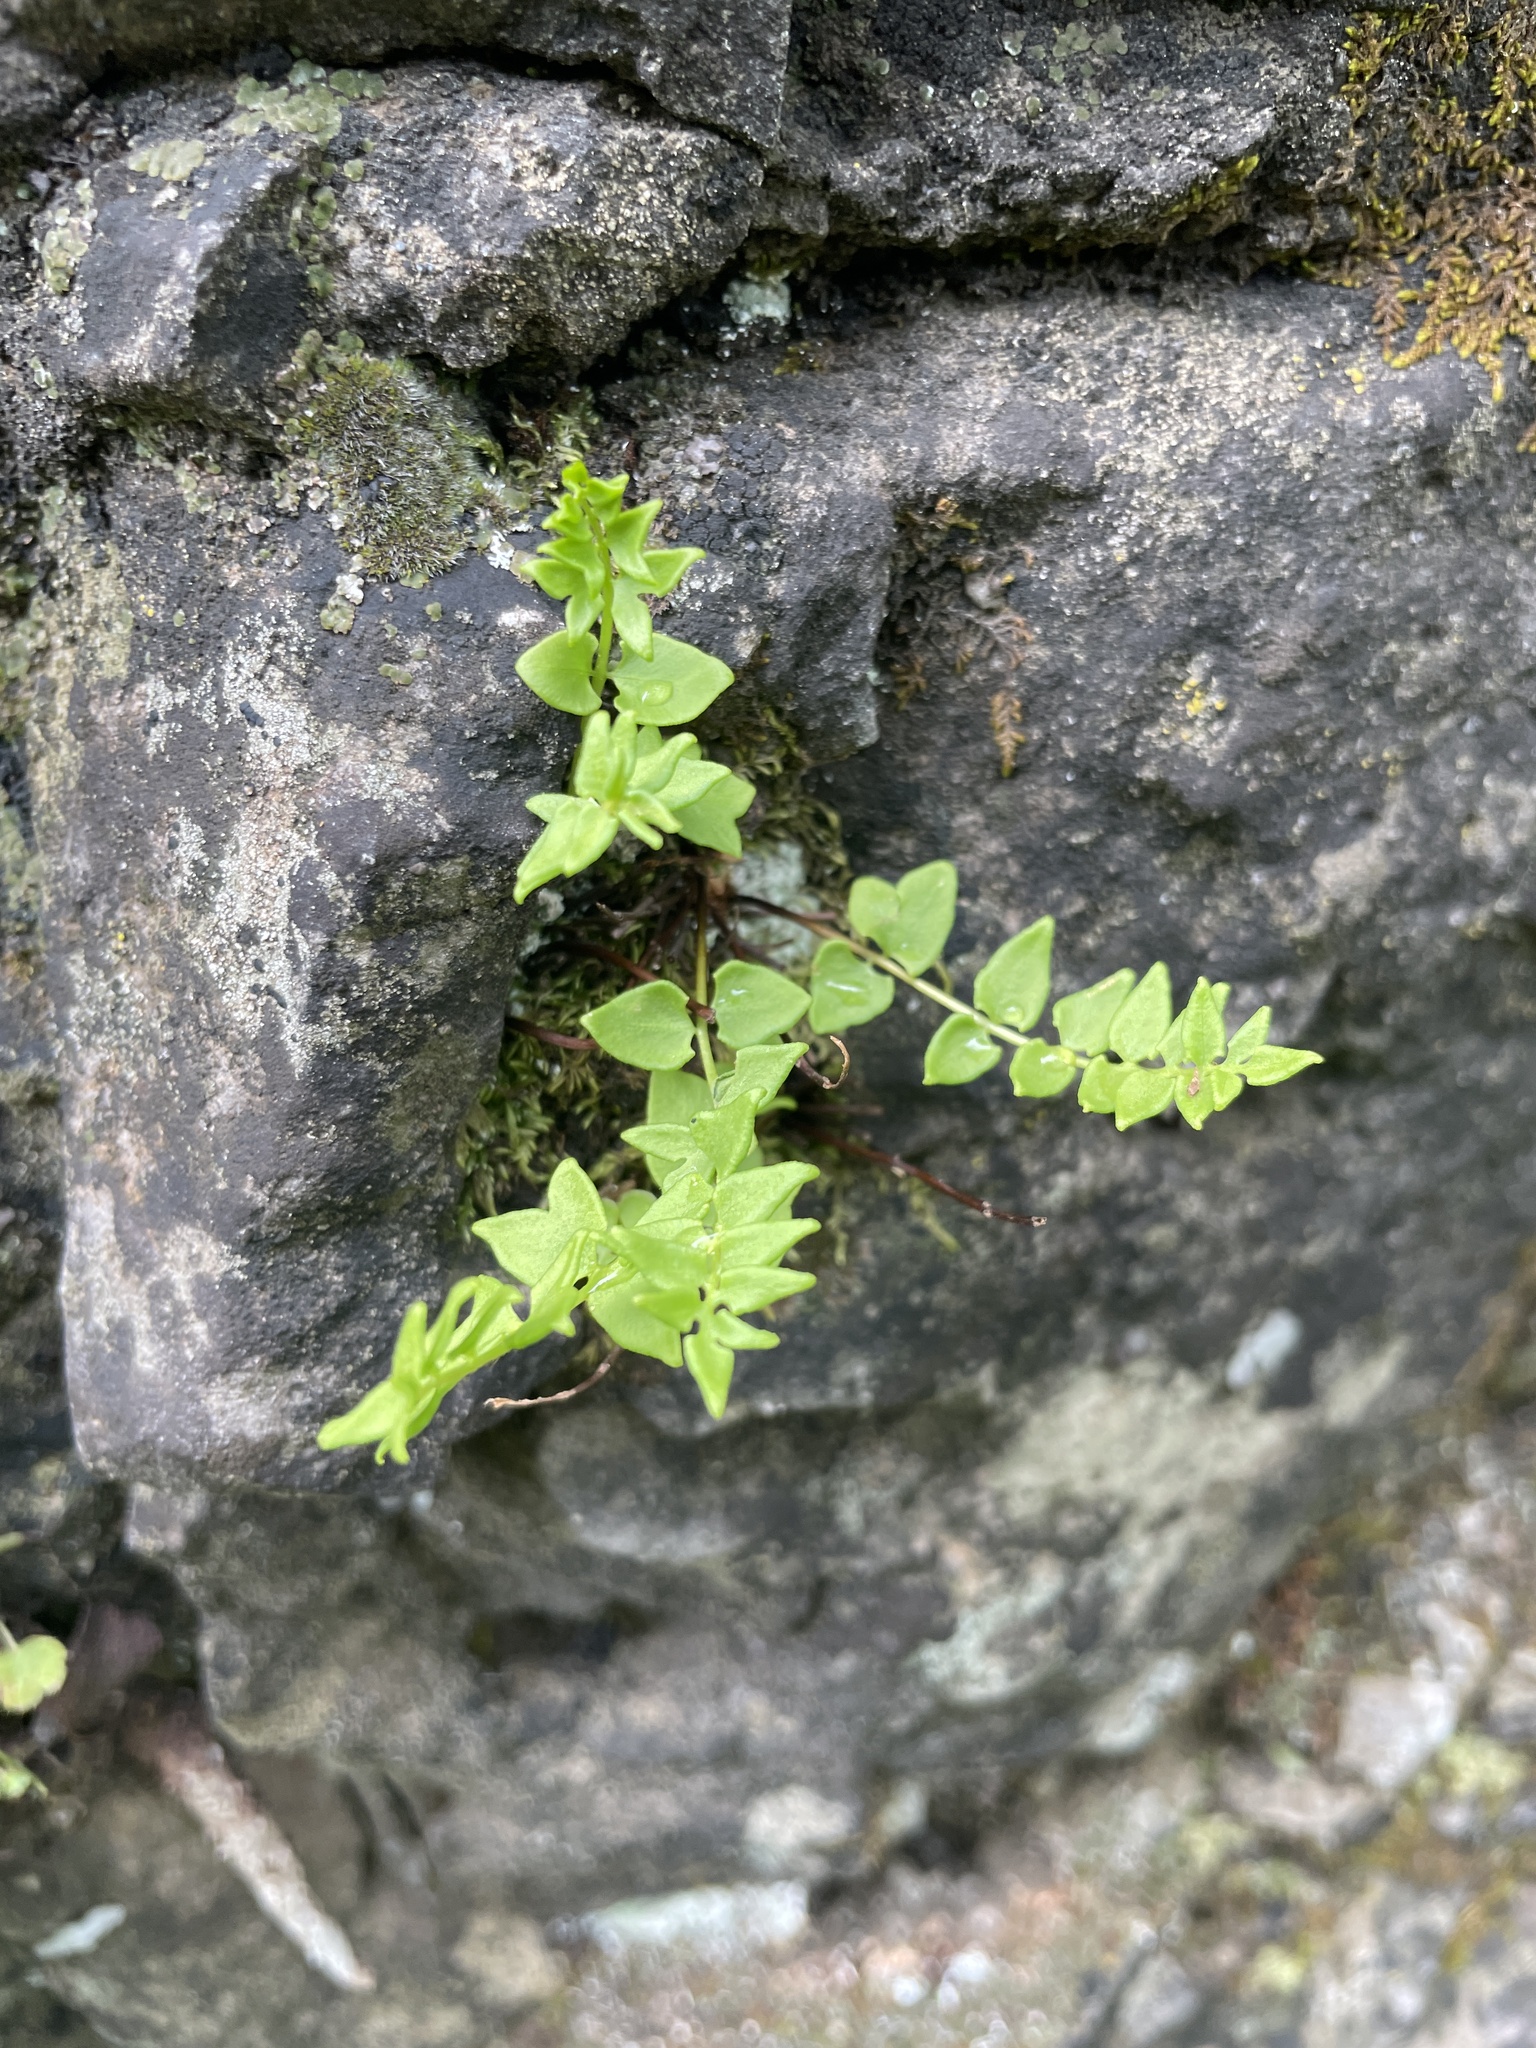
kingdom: Plantae
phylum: Tracheophyta
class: Polypodiopsida
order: Polypodiales
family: Pteridaceae
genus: Pellaea
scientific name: Pellaea breweri
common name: Brewer's cliffbrake
